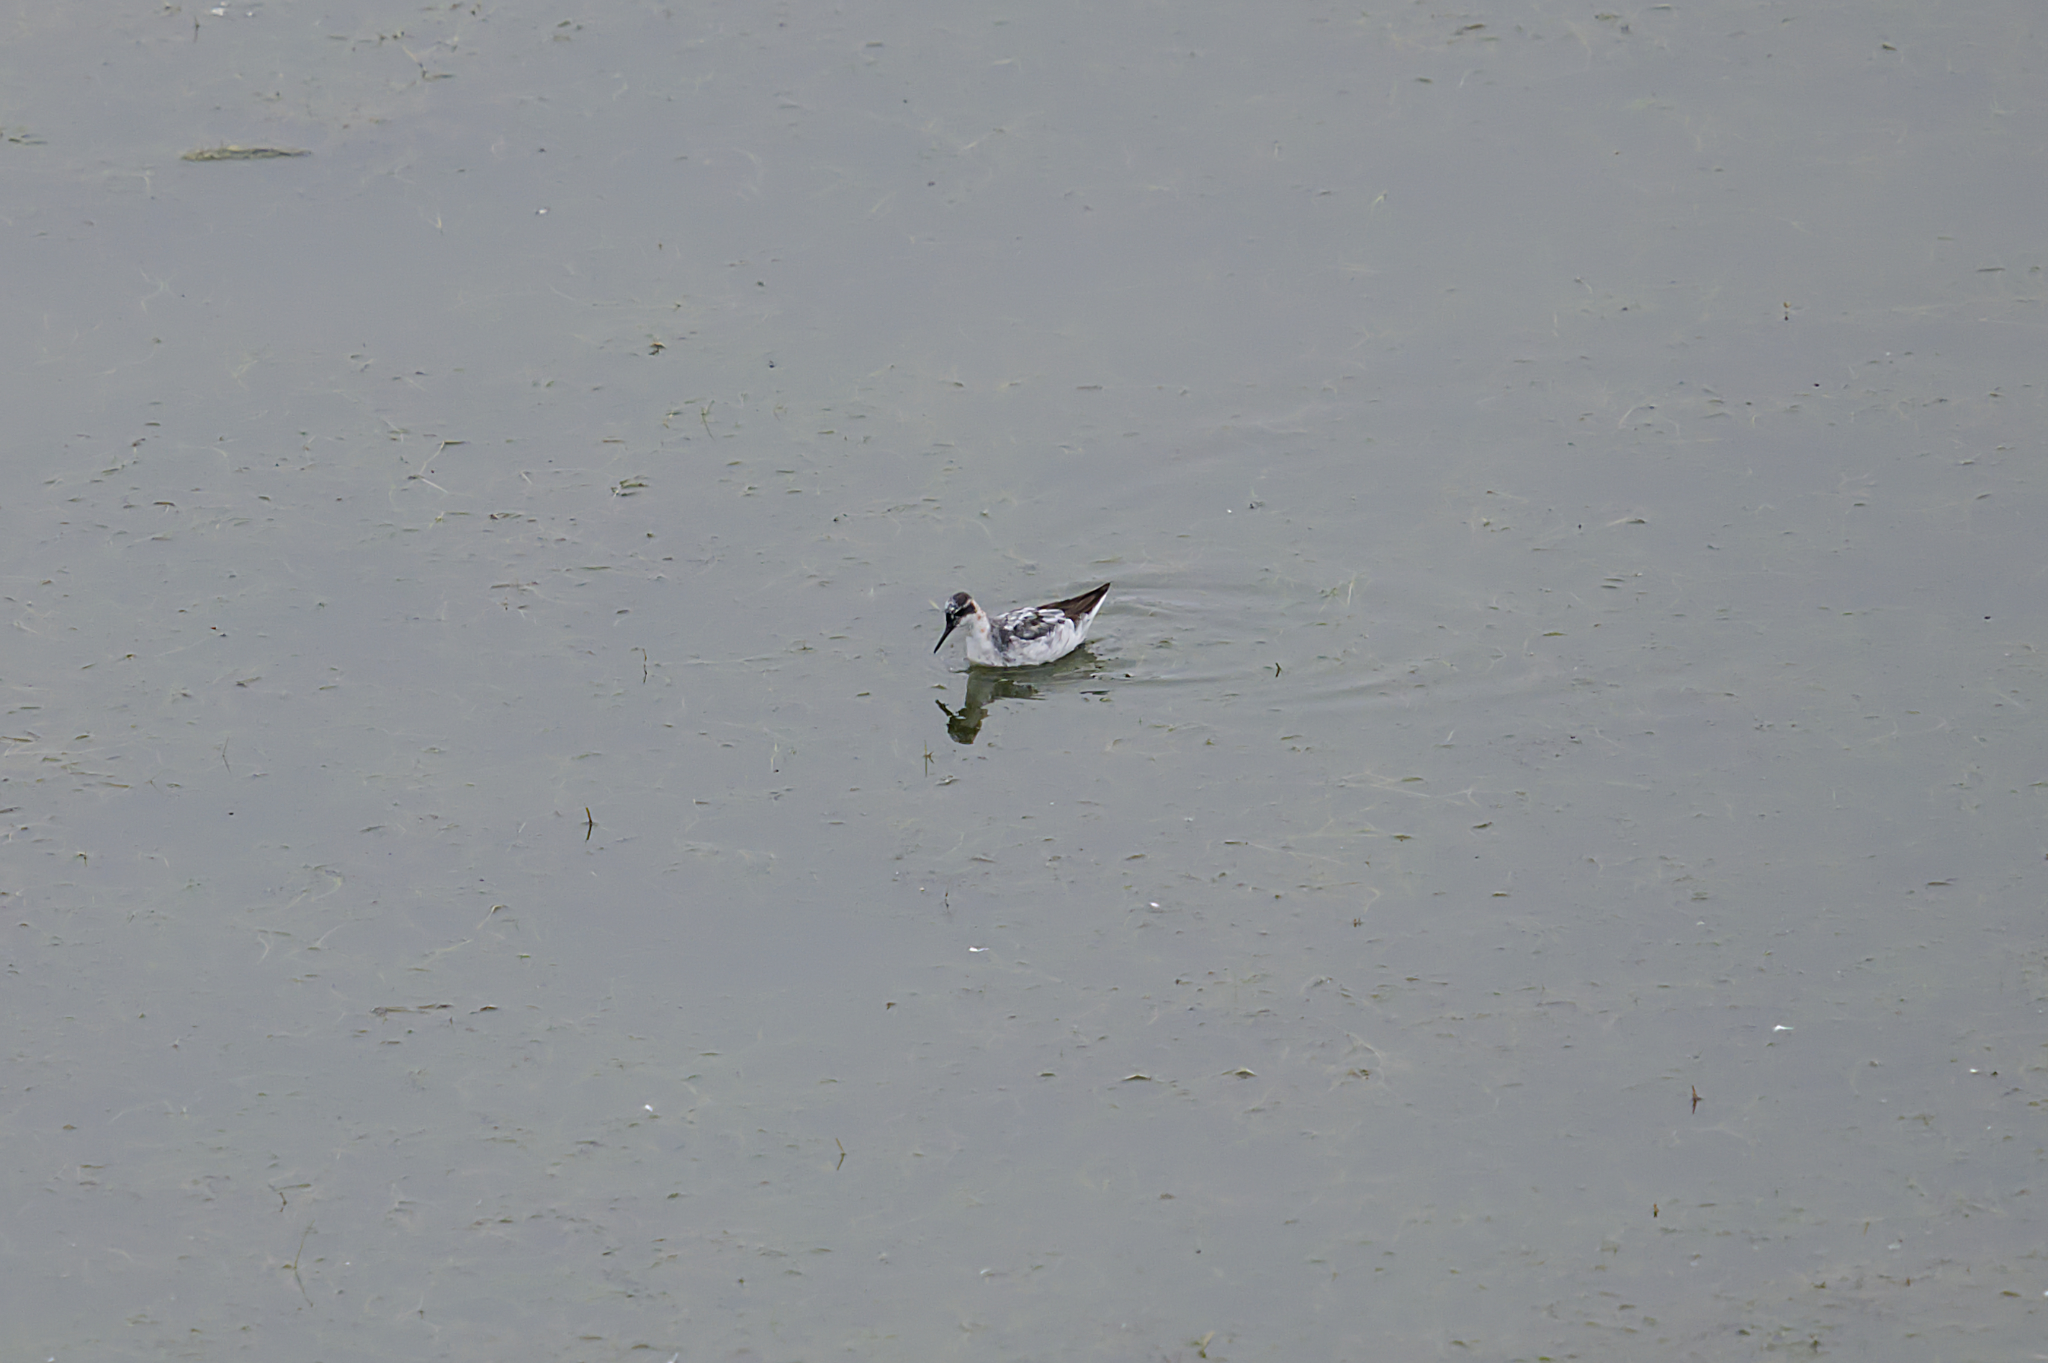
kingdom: Animalia
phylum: Chordata
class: Aves
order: Charadriiformes
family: Scolopacidae
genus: Phalaropus
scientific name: Phalaropus lobatus
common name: Red-necked phalarope
